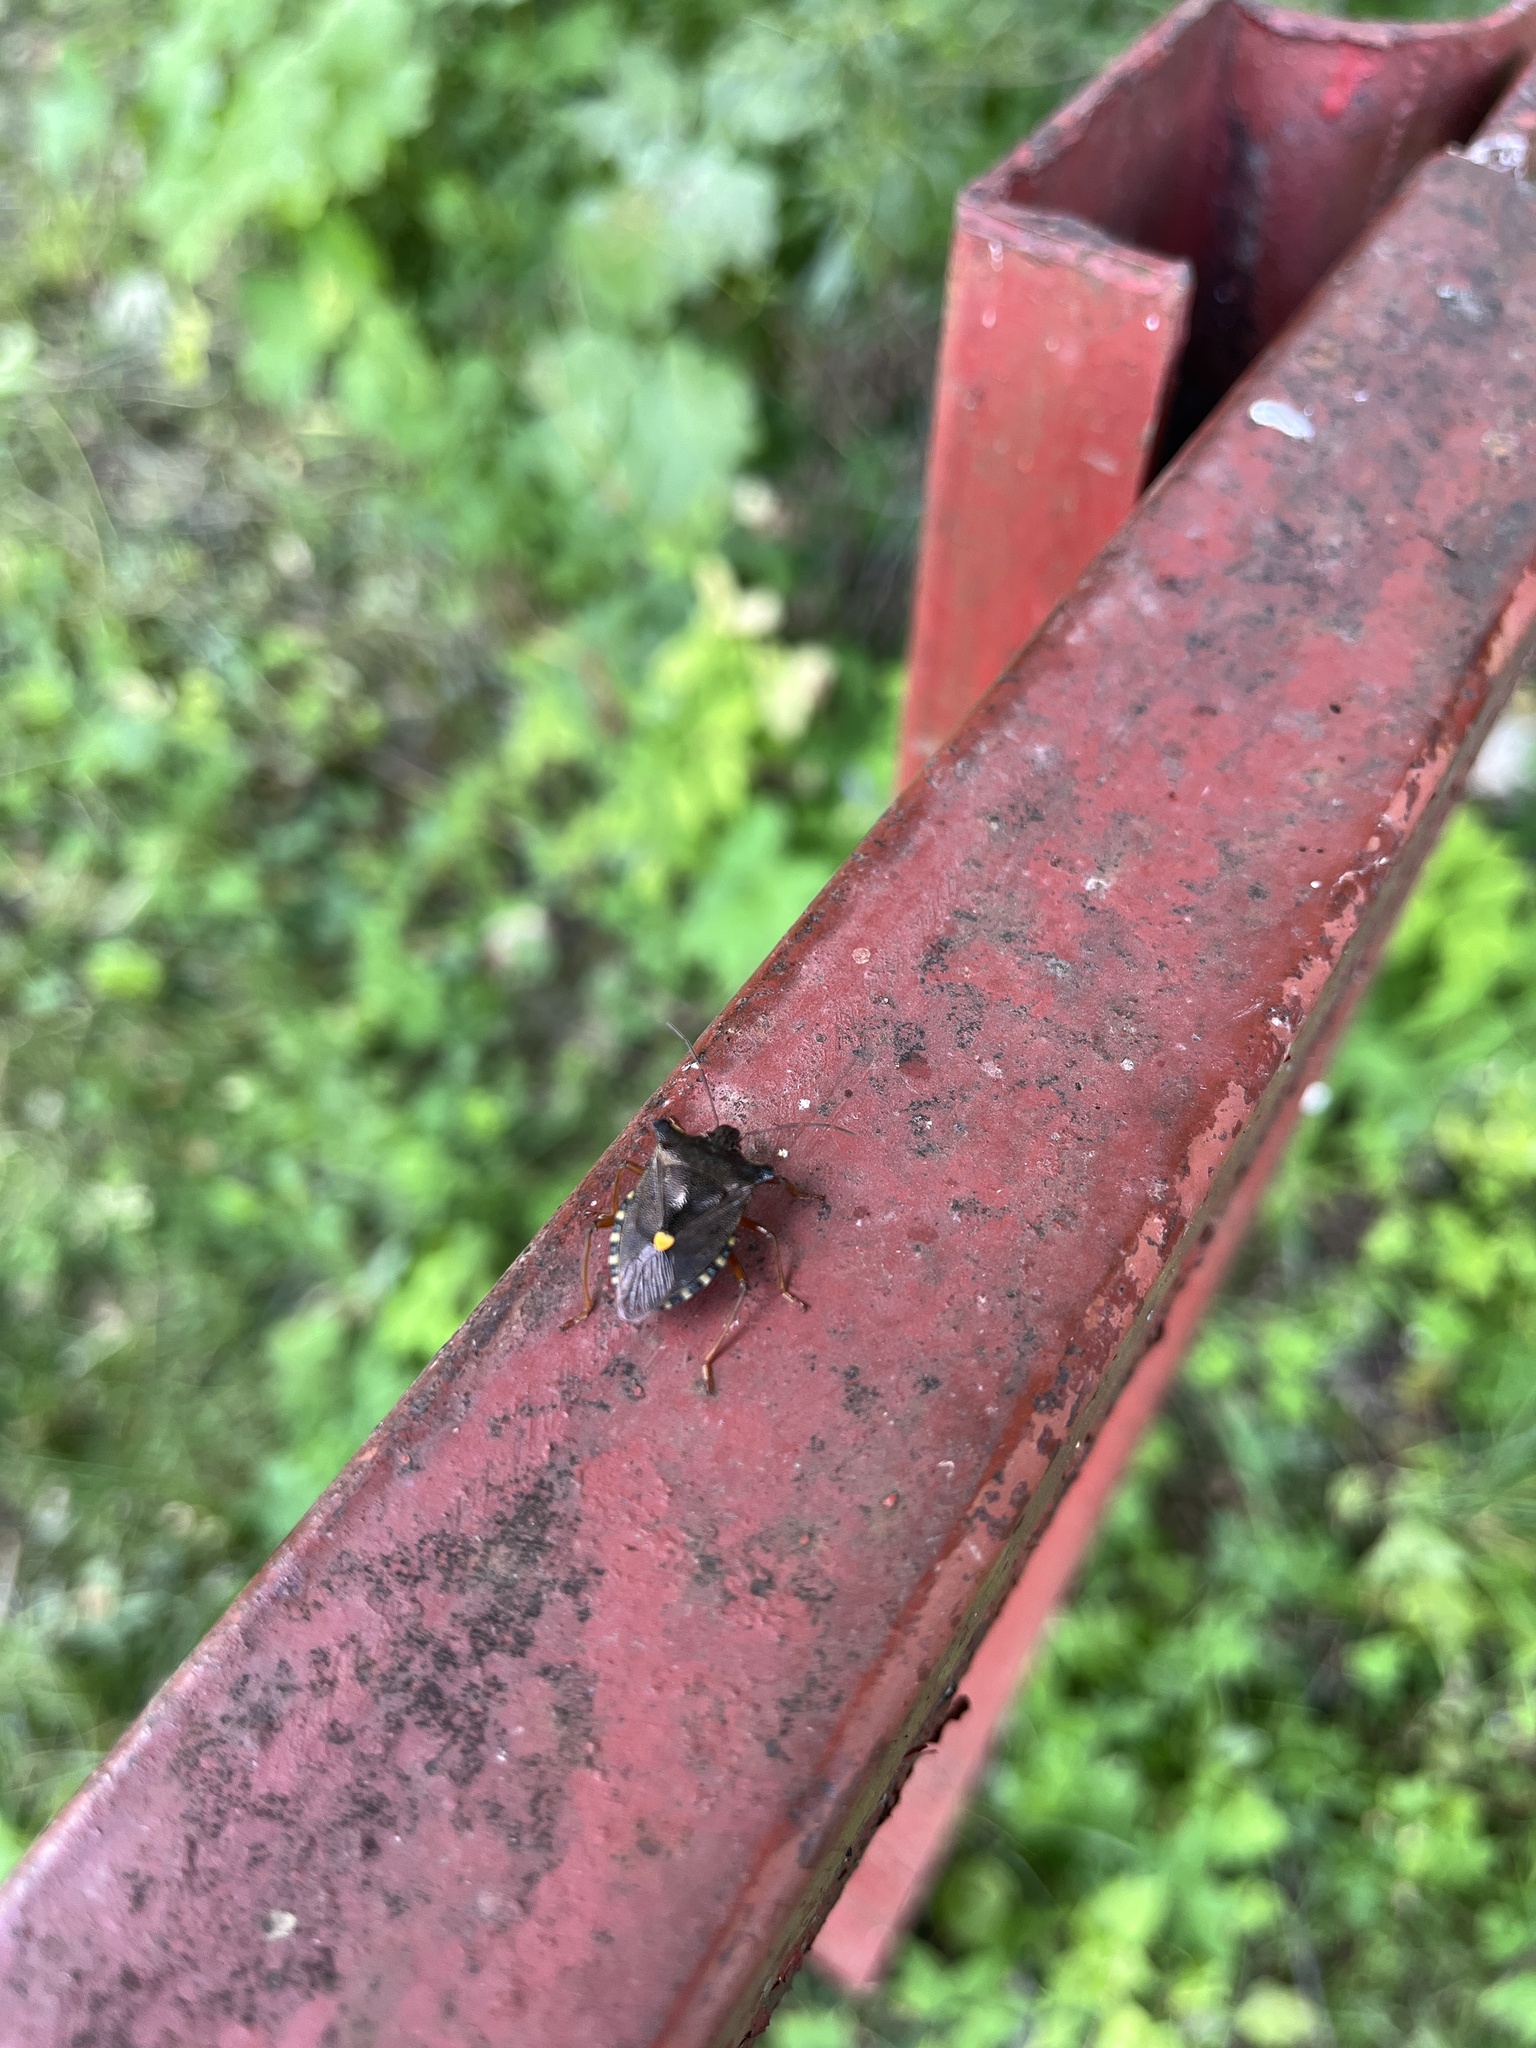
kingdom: Animalia
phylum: Arthropoda
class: Insecta
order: Hemiptera
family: Pentatomidae
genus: Pentatoma
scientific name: Pentatoma rufipes
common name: Forest bug
